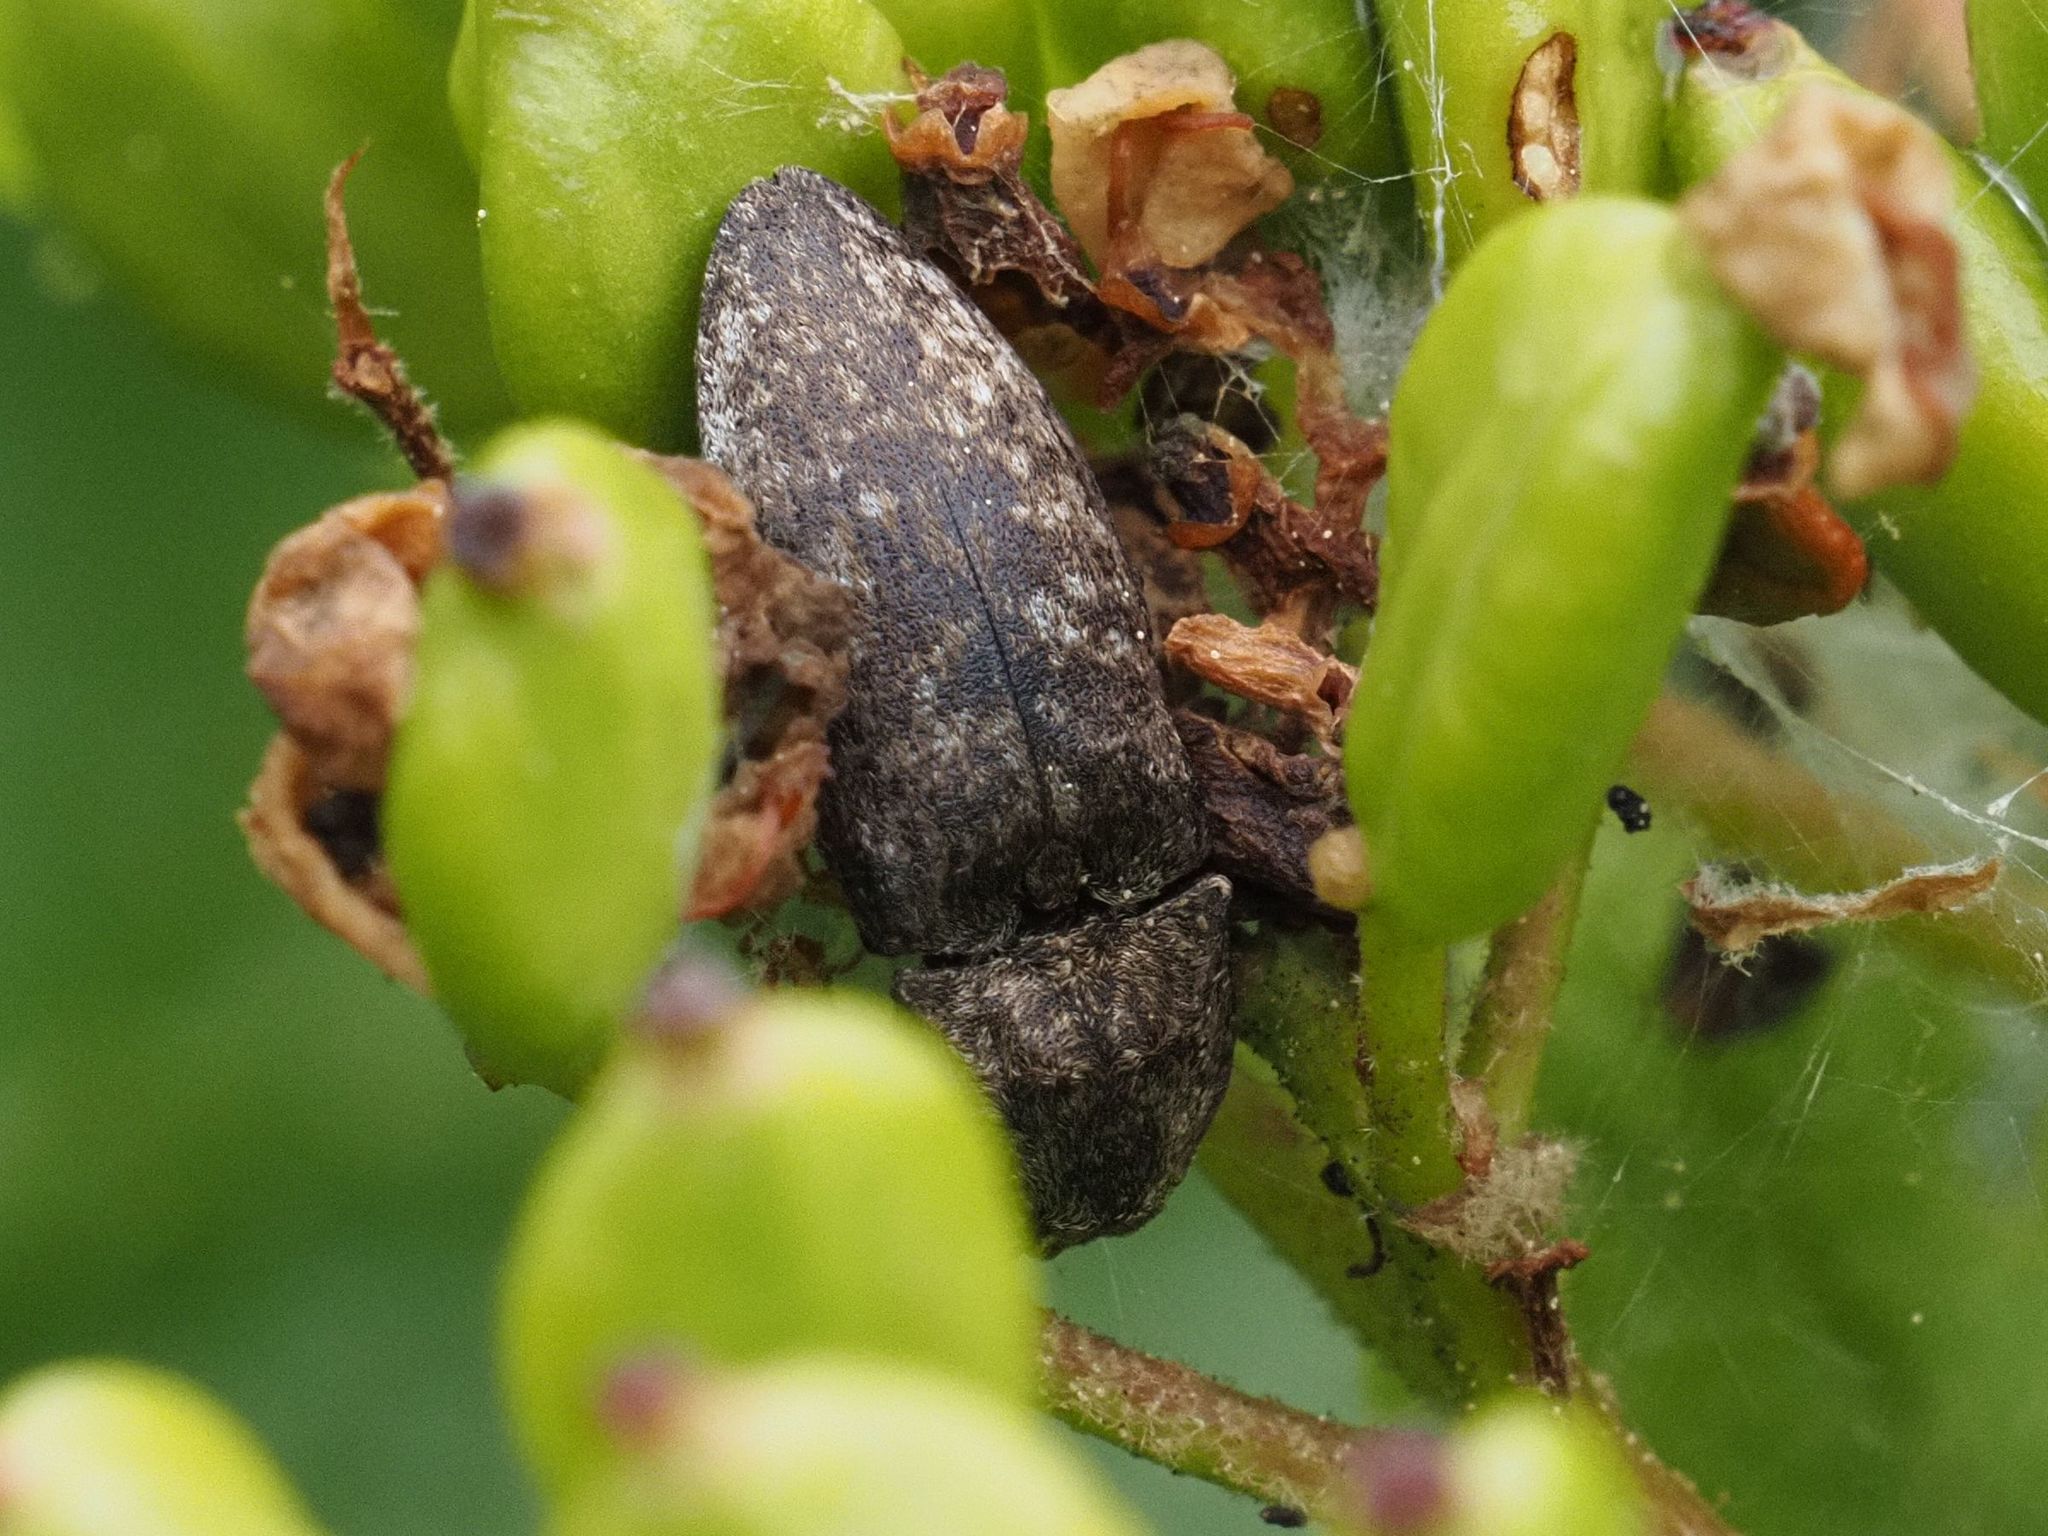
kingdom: Animalia
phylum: Arthropoda
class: Insecta
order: Coleoptera
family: Elateridae
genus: Agrypnus
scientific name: Agrypnus murinus
